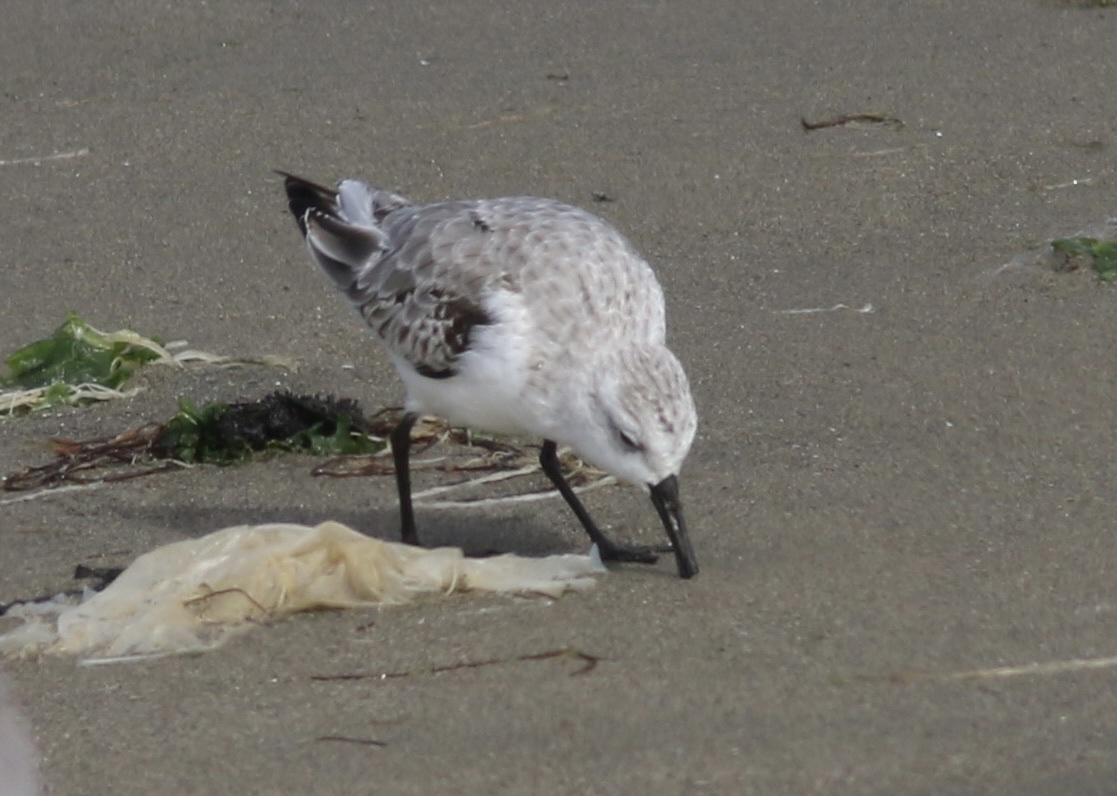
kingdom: Animalia
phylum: Chordata
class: Aves
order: Charadriiformes
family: Scolopacidae
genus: Calidris
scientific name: Calidris alba
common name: Sanderling
